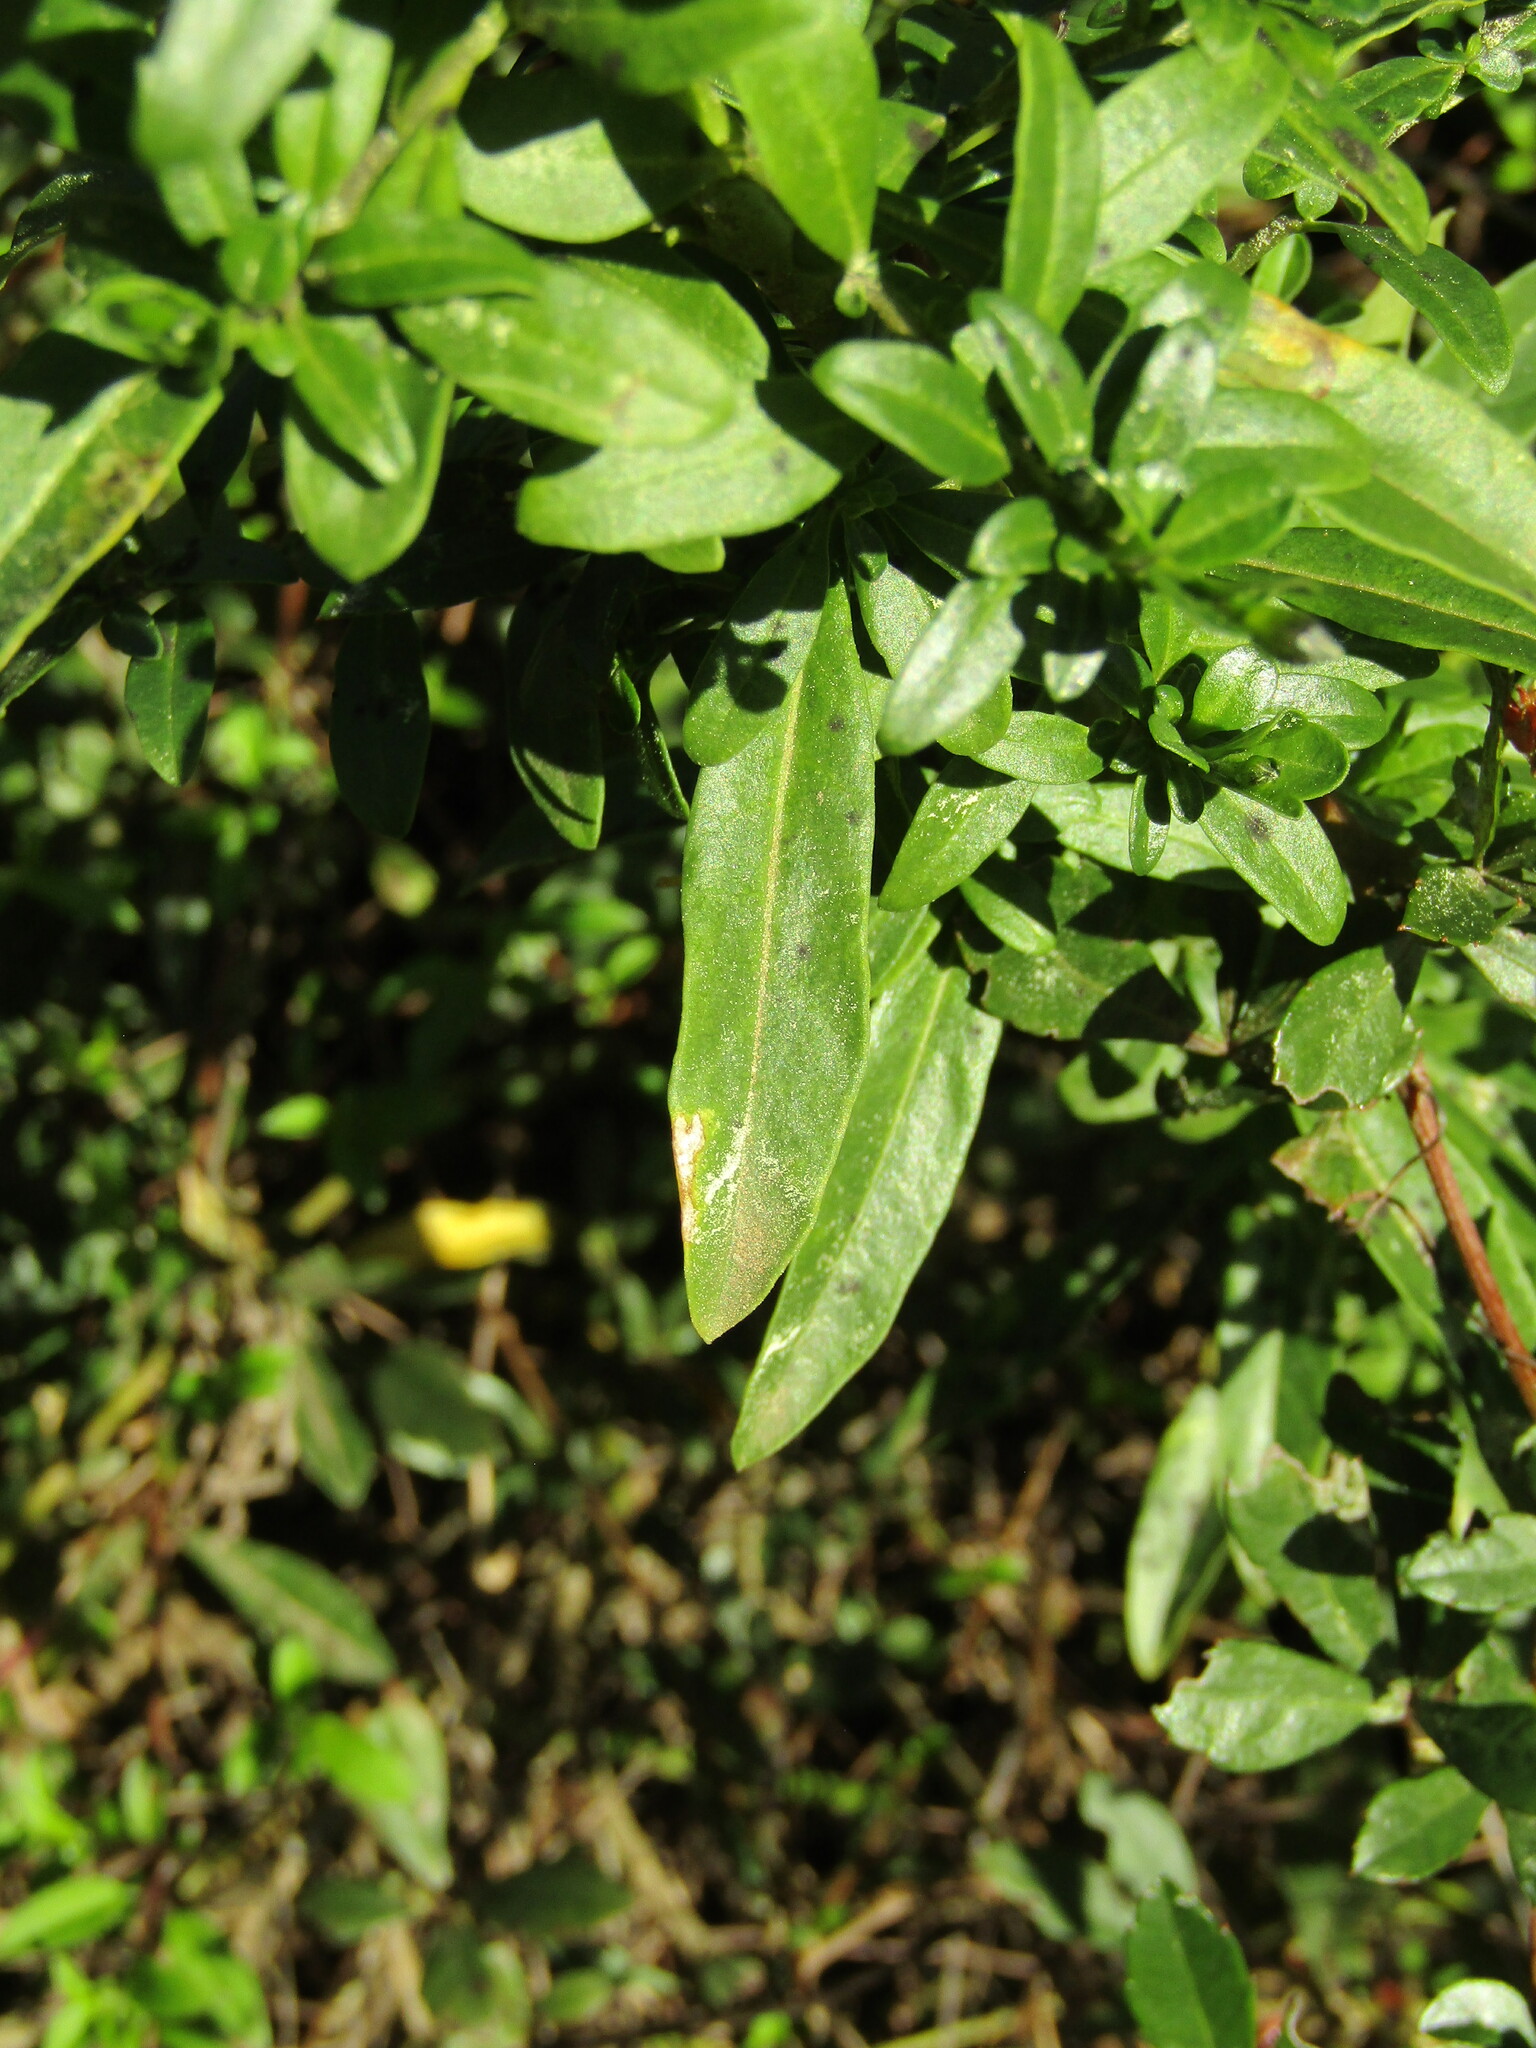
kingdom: Plantae
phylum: Tracheophyta
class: Magnoliopsida
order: Solanales
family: Solanaceae
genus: Vestia
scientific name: Vestia foetida
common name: Huevil
